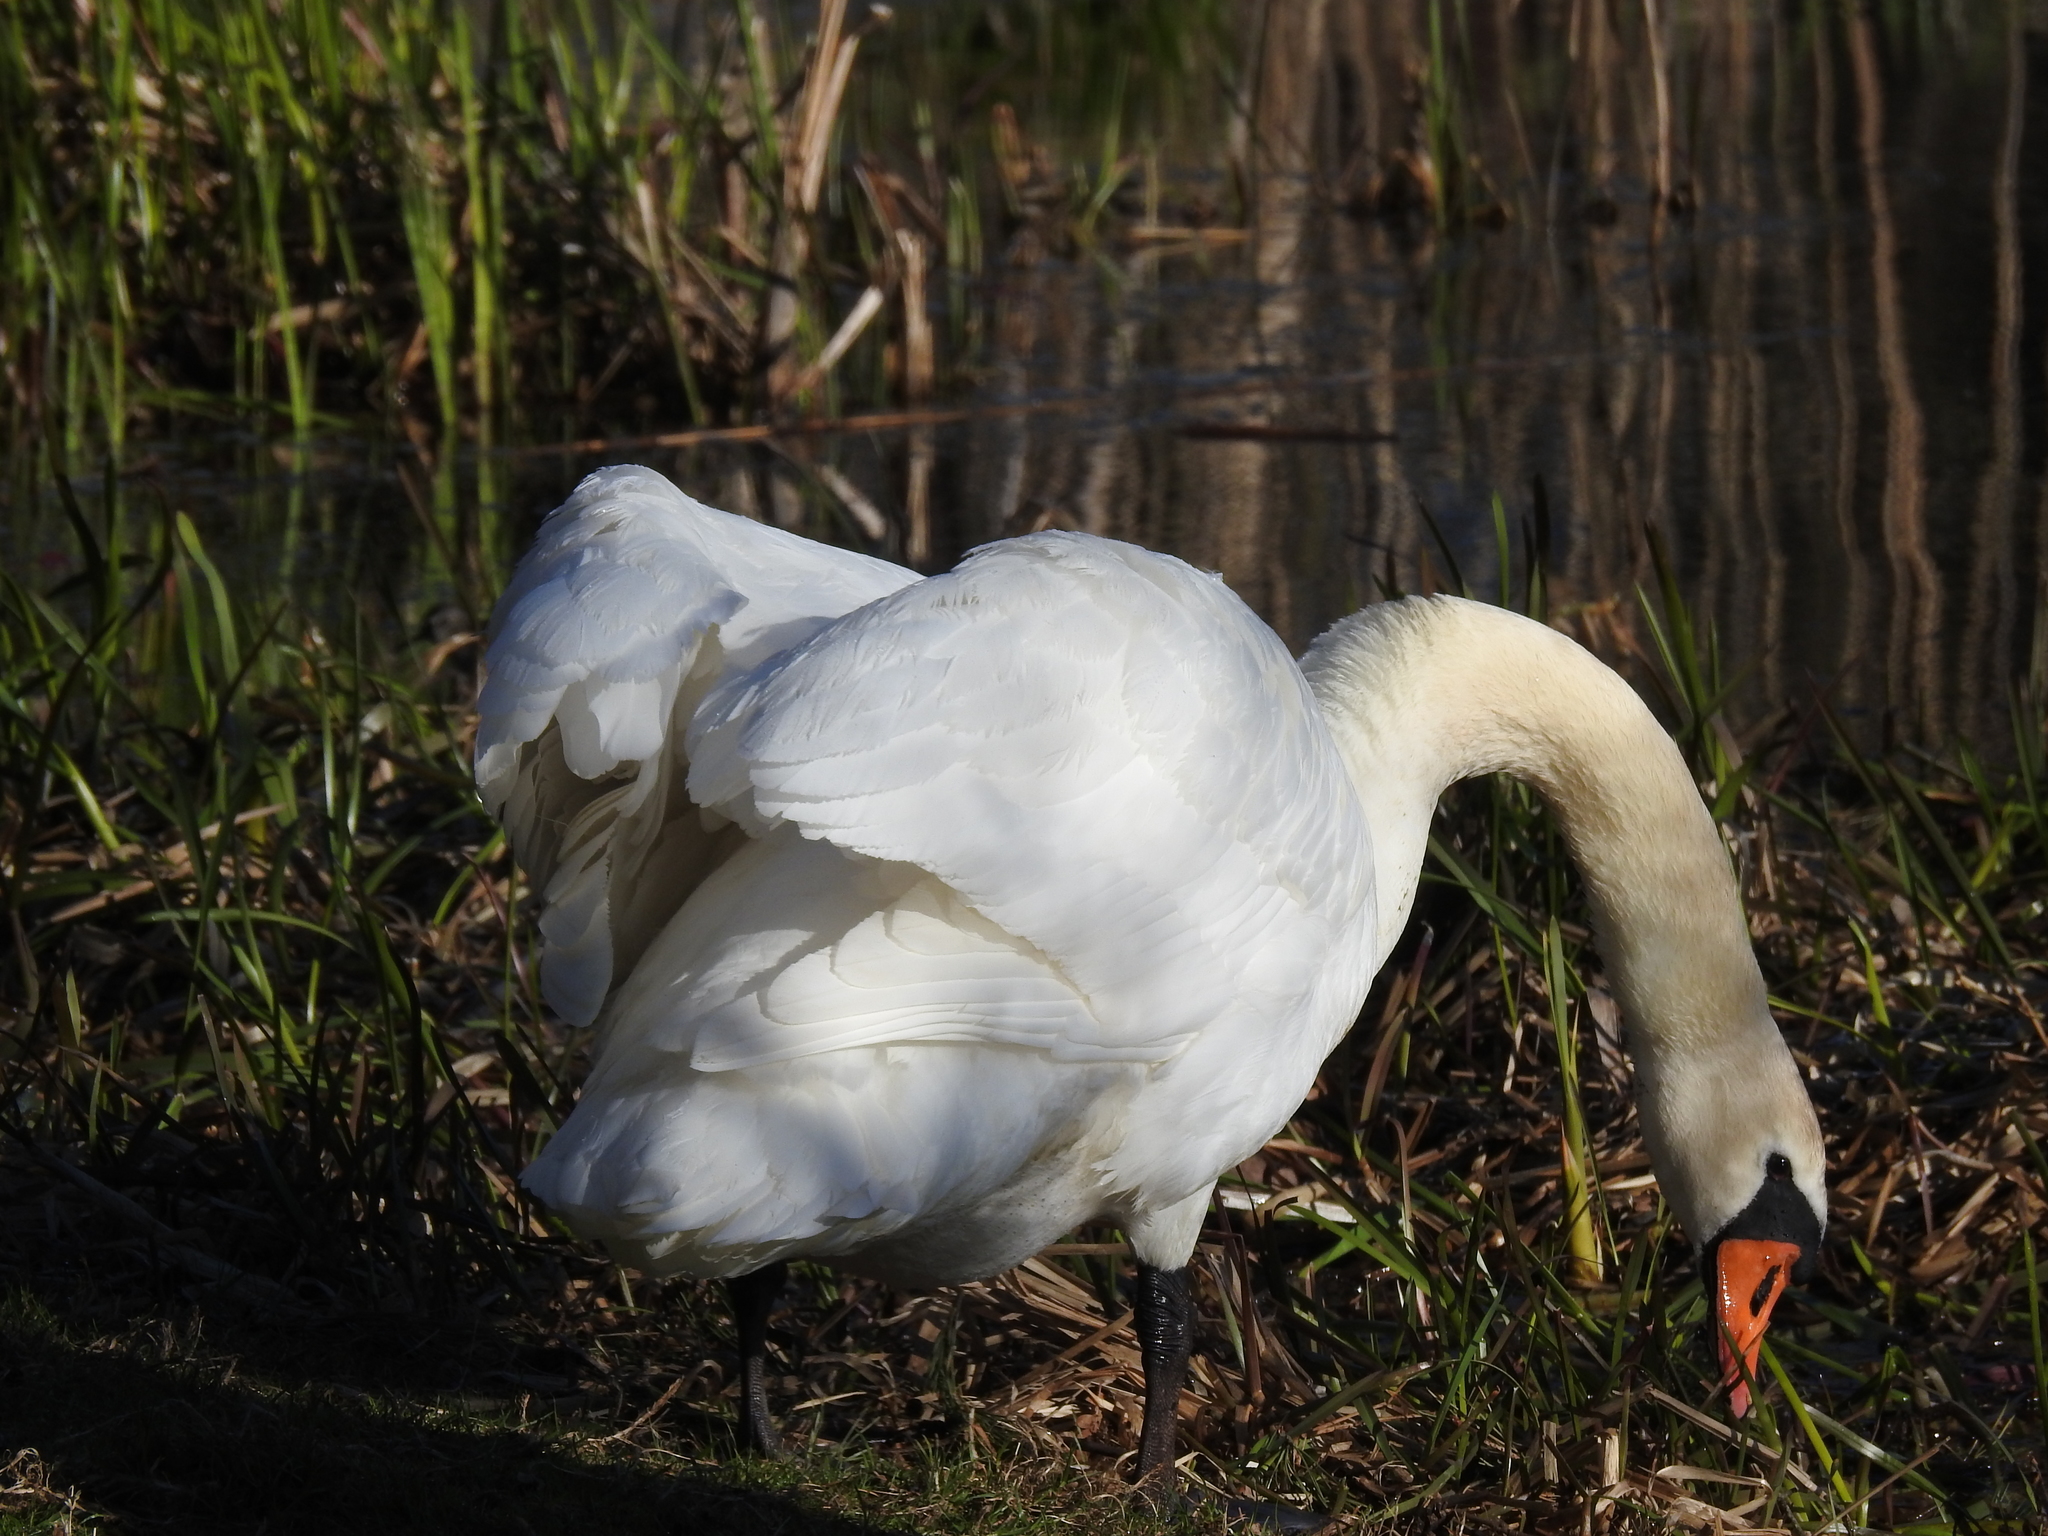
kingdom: Animalia
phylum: Chordata
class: Aves
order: Anseriformes
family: Anatidae
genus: Cygnus
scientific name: Cygnus olor
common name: Mute swan
